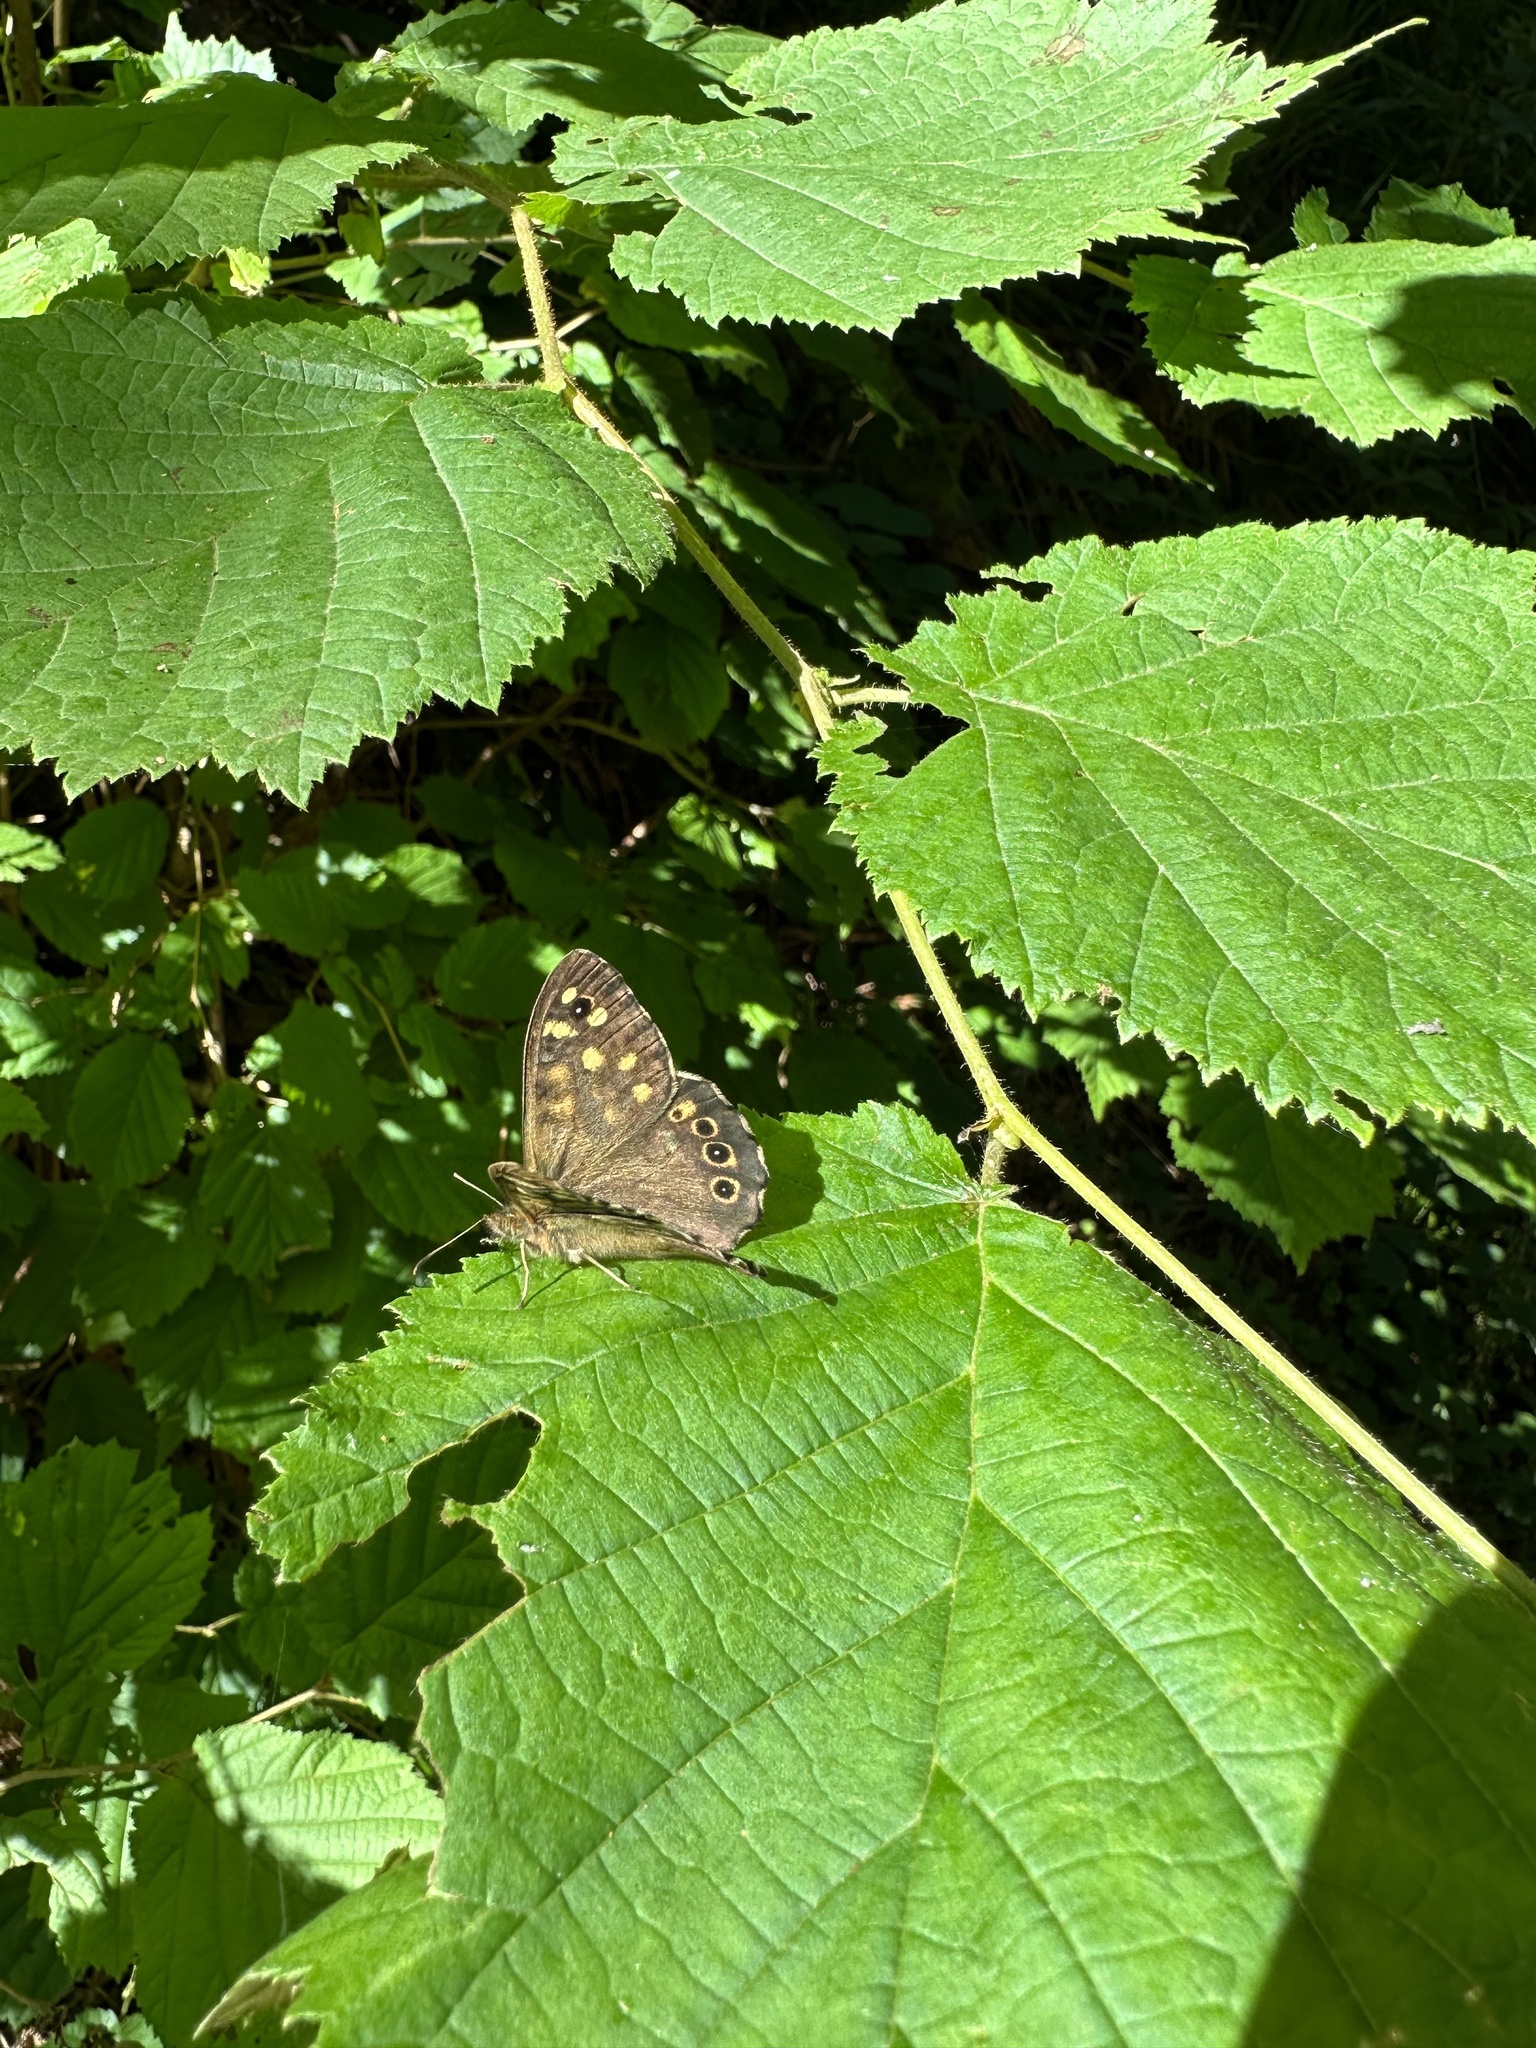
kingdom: Animalia
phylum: Arthropoda
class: Insecta
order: Lepidoptera
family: Nymphalidae
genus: Pararge
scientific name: Pararge aegeria
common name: Speckled wood
